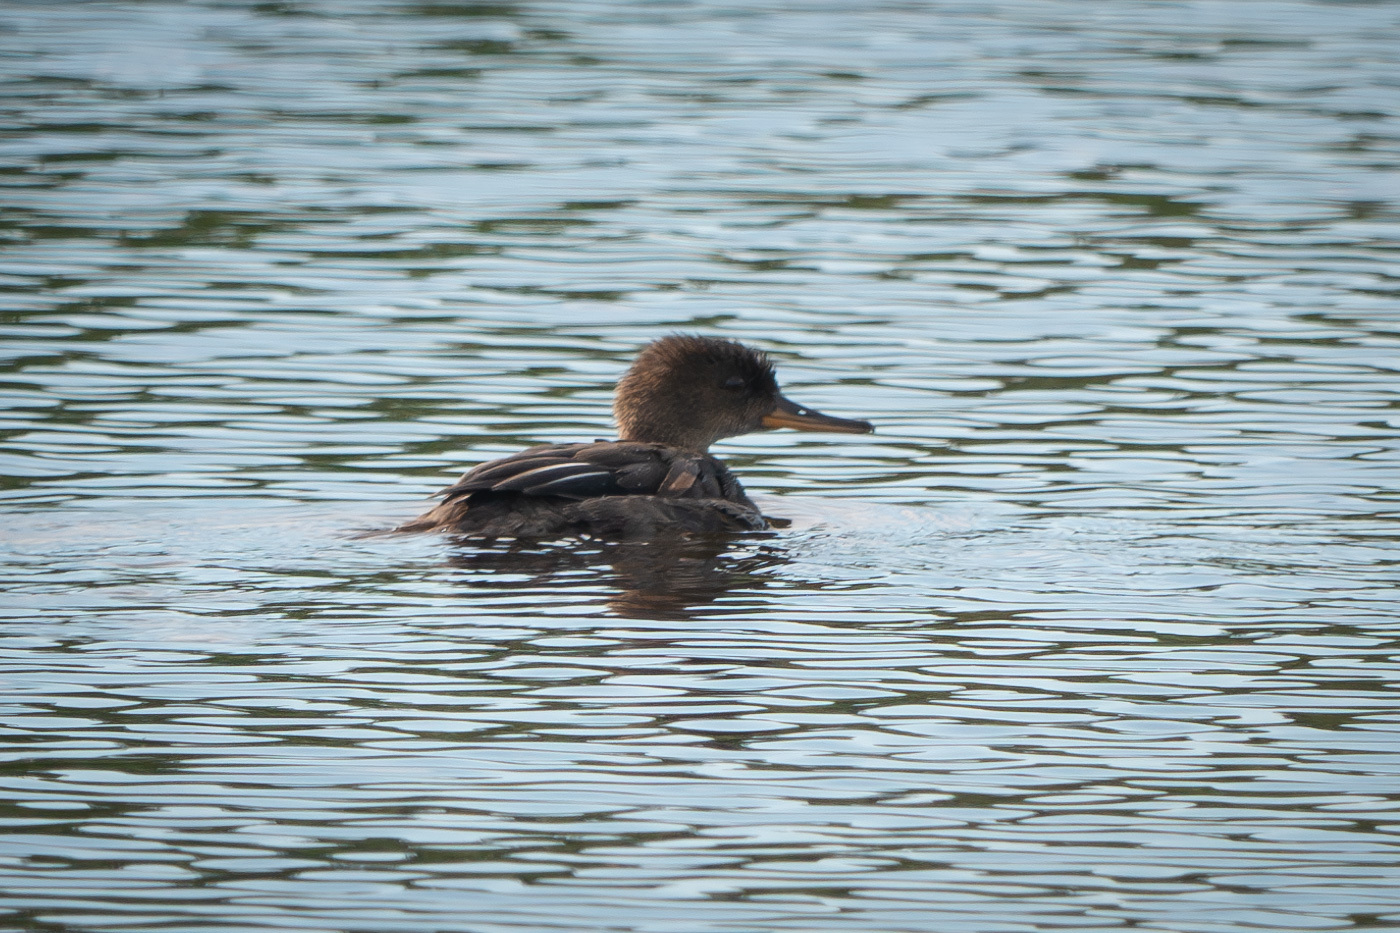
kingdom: Animalia
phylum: Chordata
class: Aves
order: Anseriformes
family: Anatidae
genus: Lophodytes
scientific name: Lophodytes cucullatus
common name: Hooded merganser
